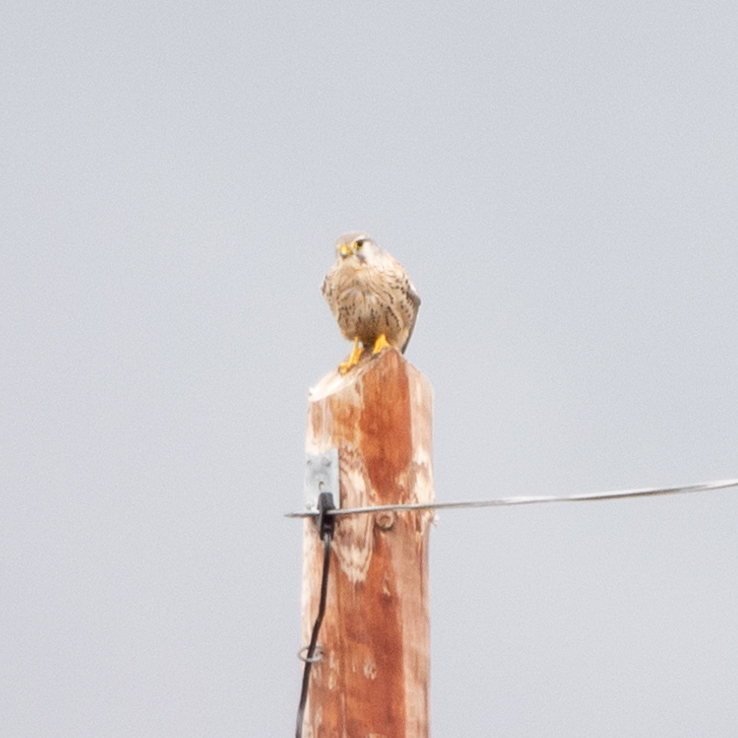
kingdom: Animalia
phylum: Chordata
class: Aves
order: Falconiformes
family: Falconidae
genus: Falco
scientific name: Falco tinnunculus
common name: Common kestrel
